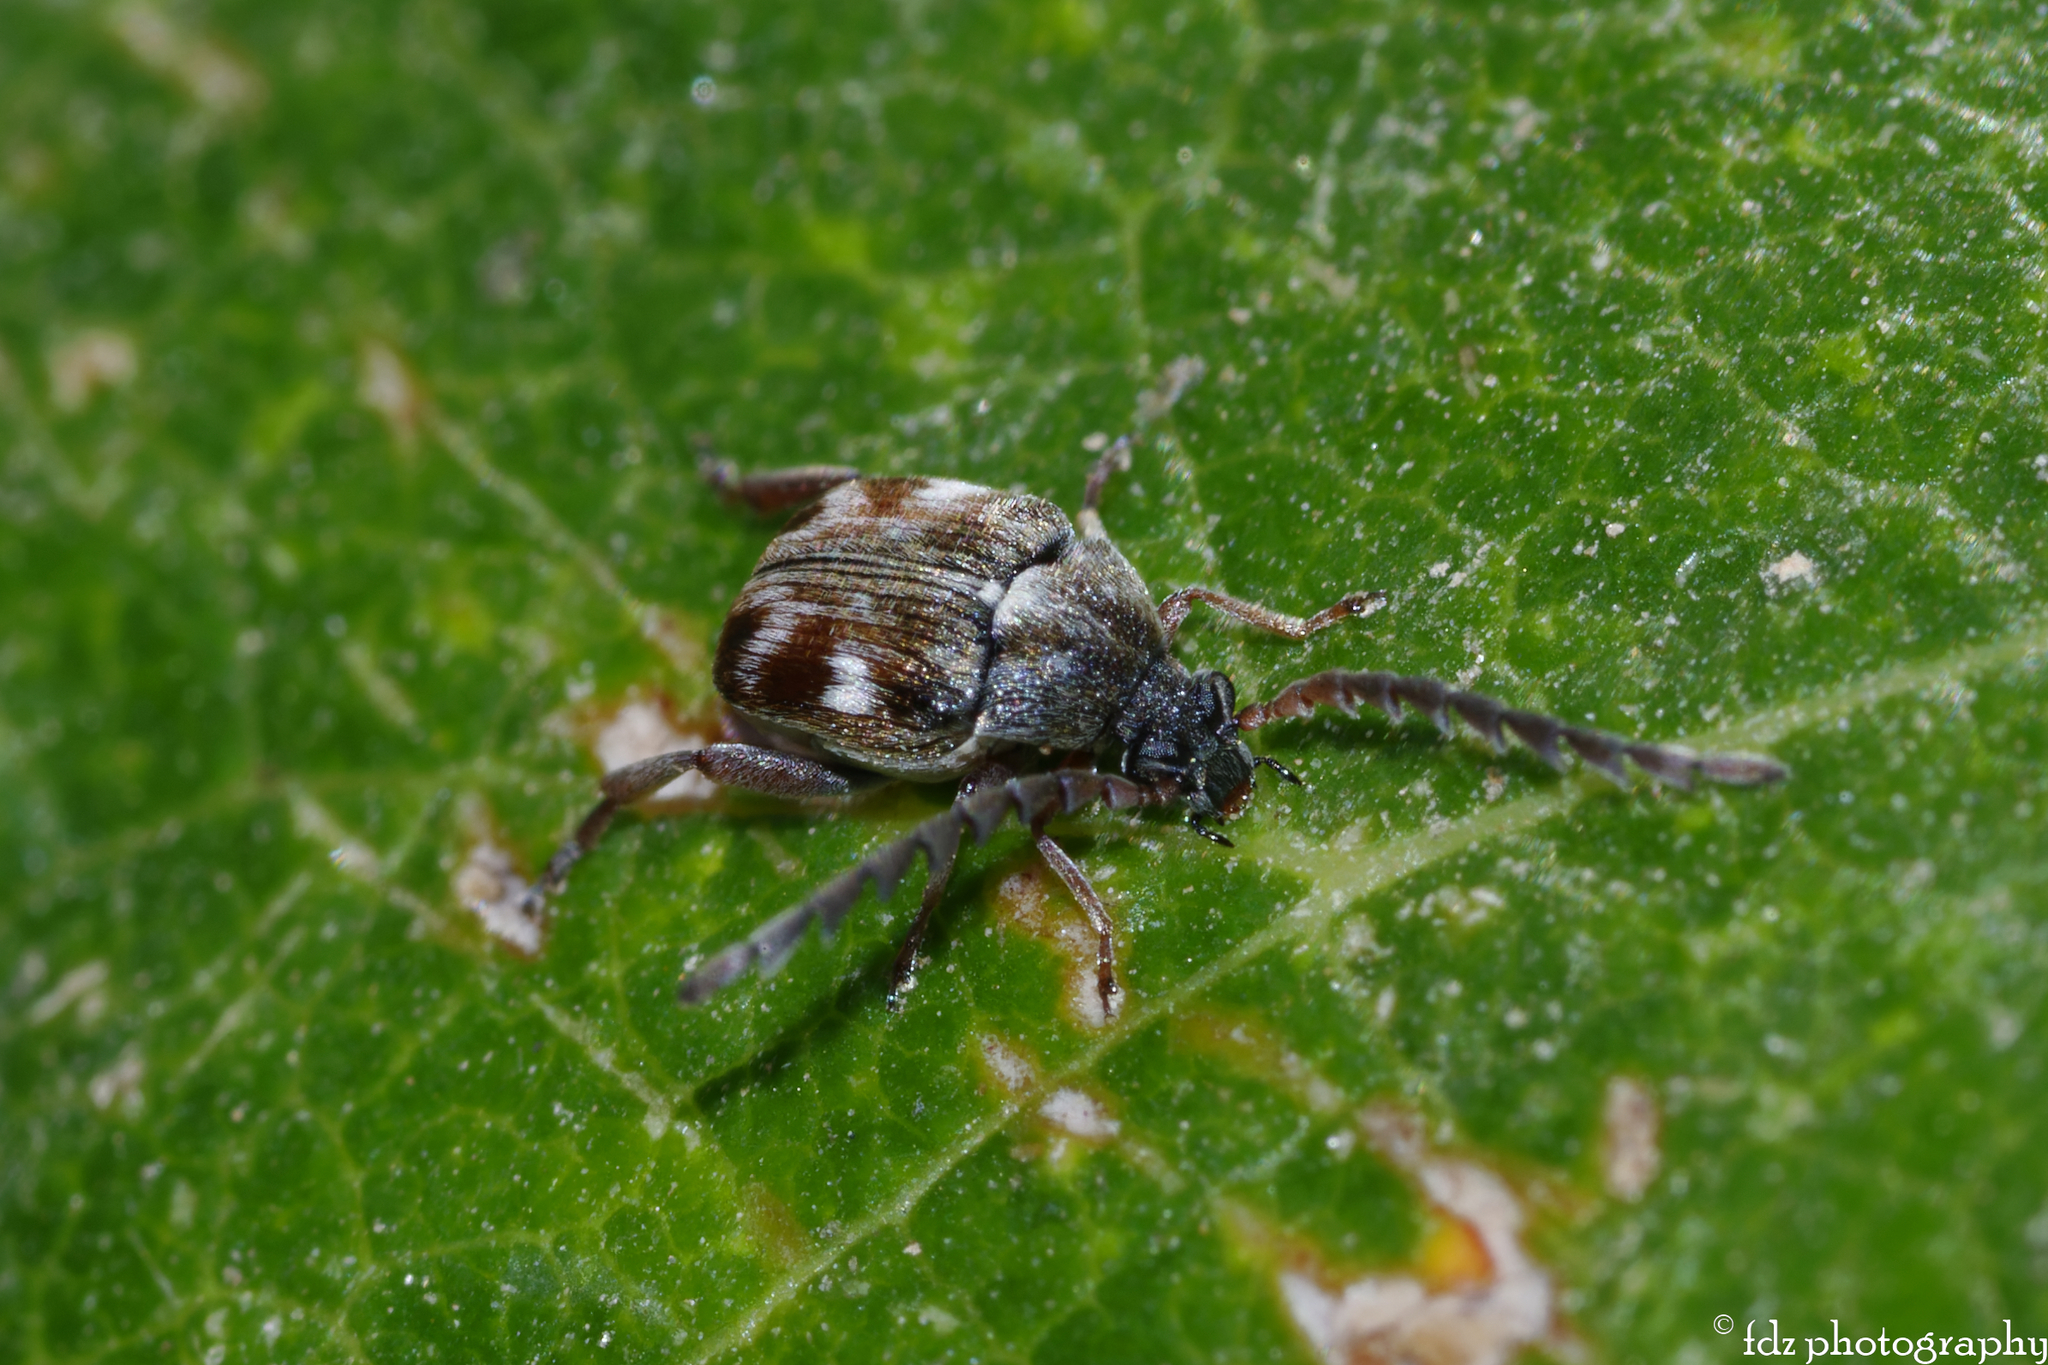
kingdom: Animalia
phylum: Arthropoda
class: Insecta
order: Coleoptera
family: Chrysomelidae
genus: Serratobruchidius
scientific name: Serratobruchidius
